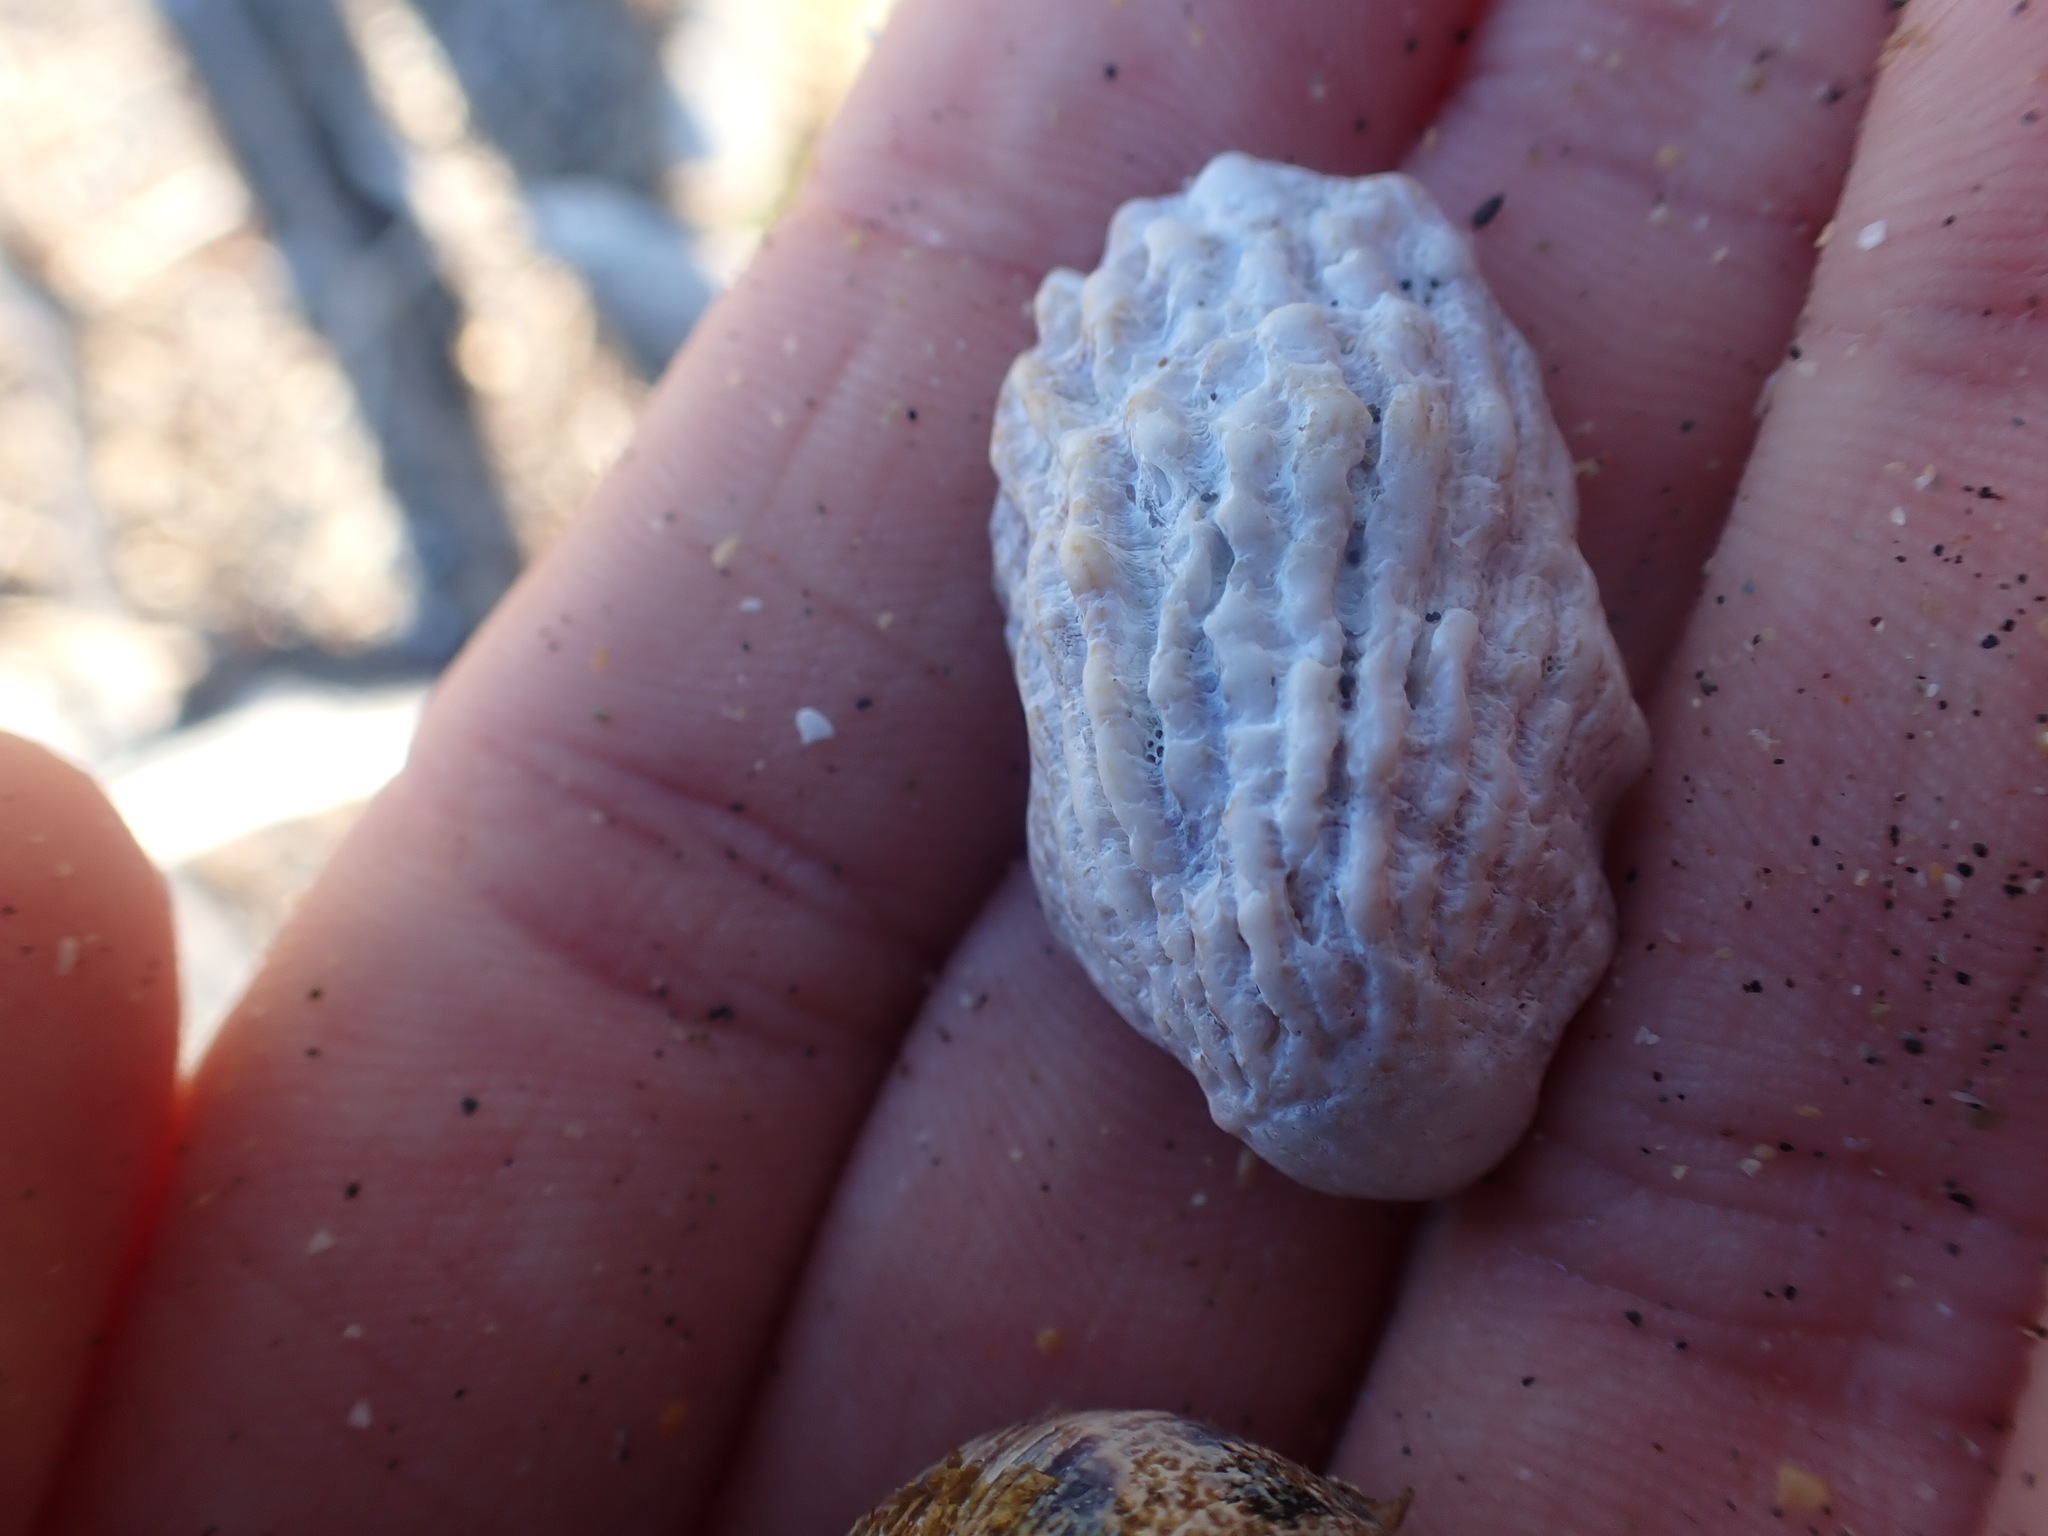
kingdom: Animalia
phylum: Mollusca
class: Gastropoda
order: Littorinimorpha
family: Calyptraeidae
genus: Maoricrypta
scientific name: Maoricrypta costata
